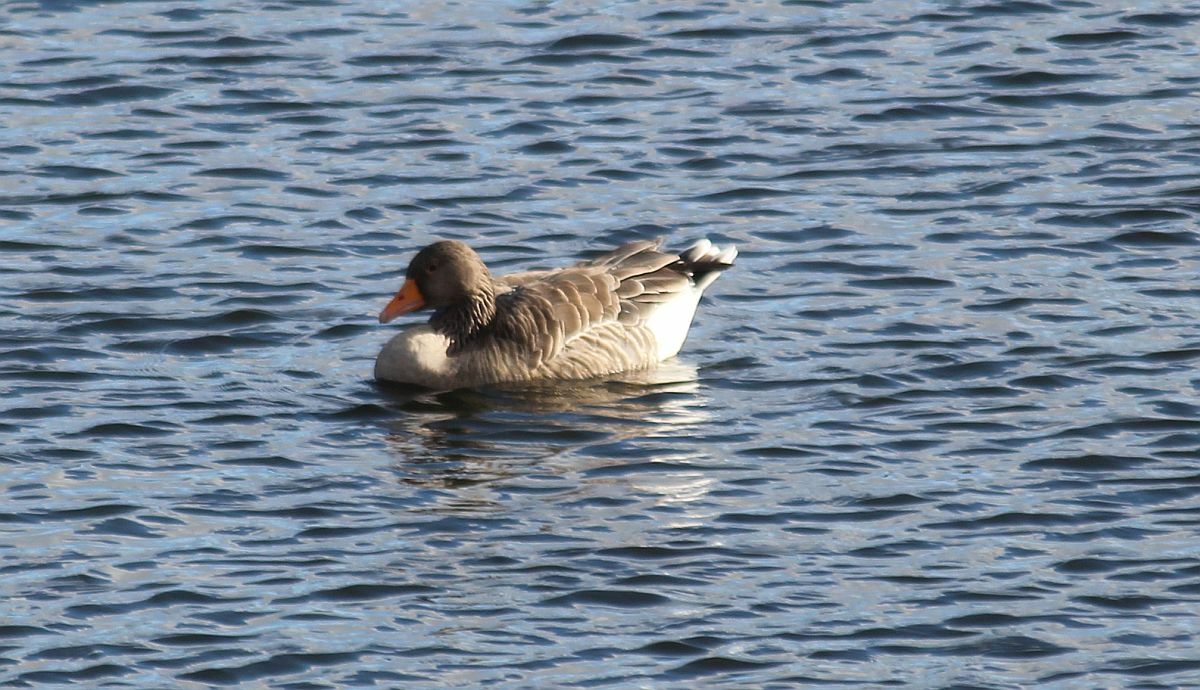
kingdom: Animalia
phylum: Chordata
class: Aves
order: Anseriformes
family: Anatidae
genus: Anser
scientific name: Anser anser
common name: Greylag goose
